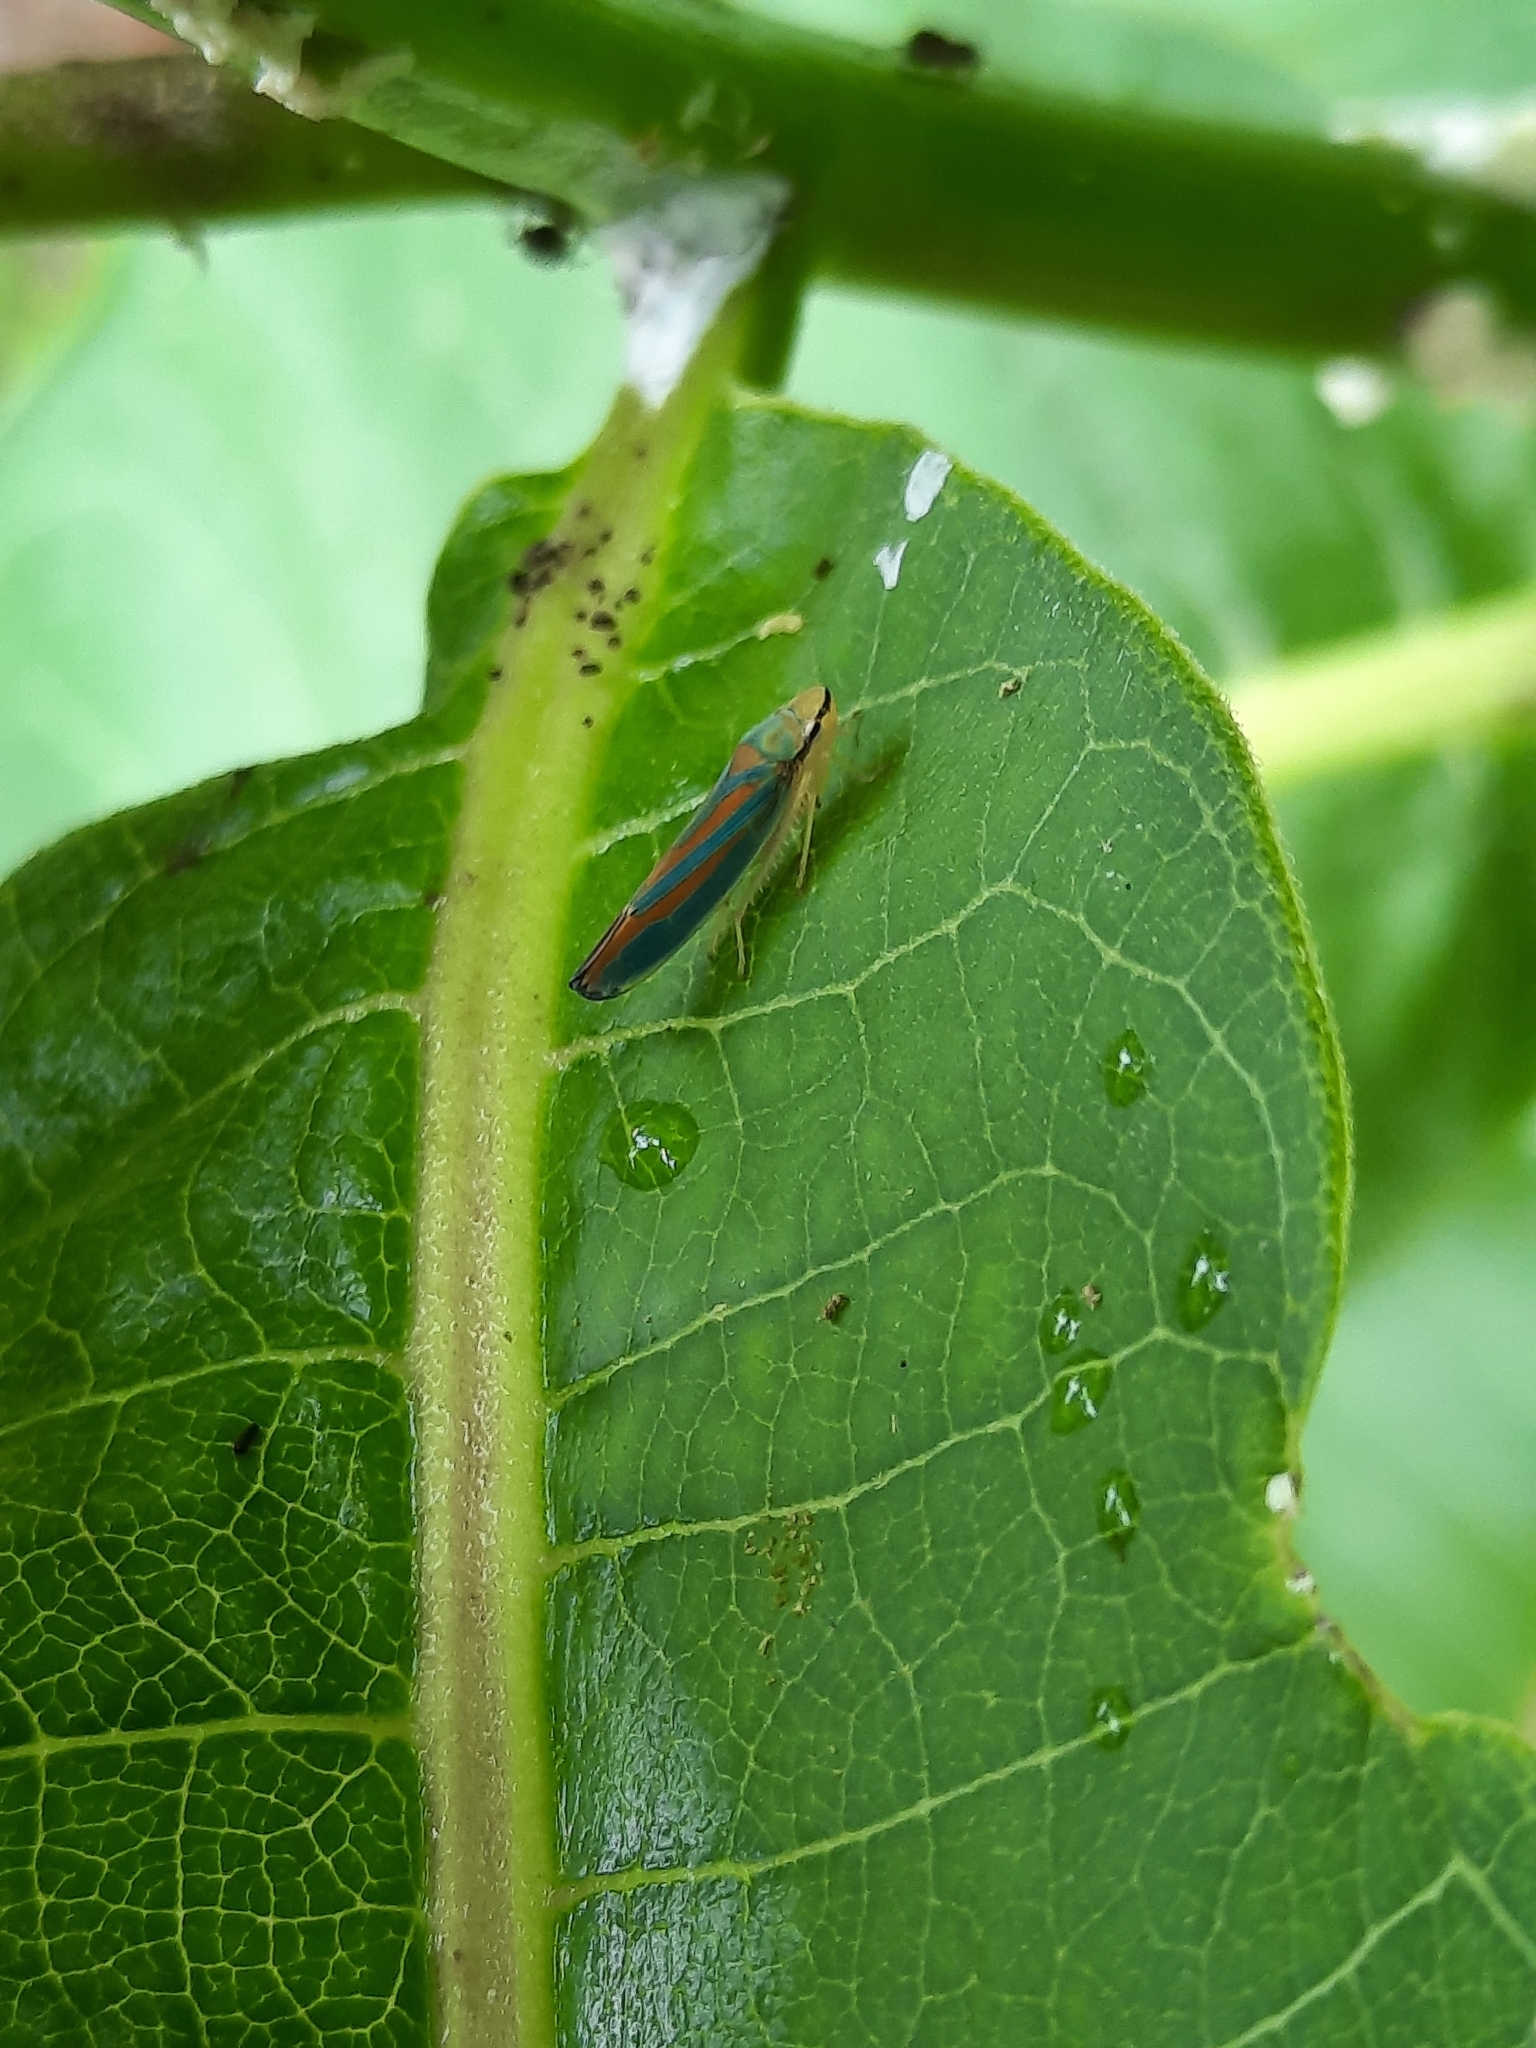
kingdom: Animalia
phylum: Arthropoda
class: Insecta
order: Hemiptera
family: Cicadellidae
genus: Graphocephala
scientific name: Graphocephala coccinea
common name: Candy-striped leafhopper
